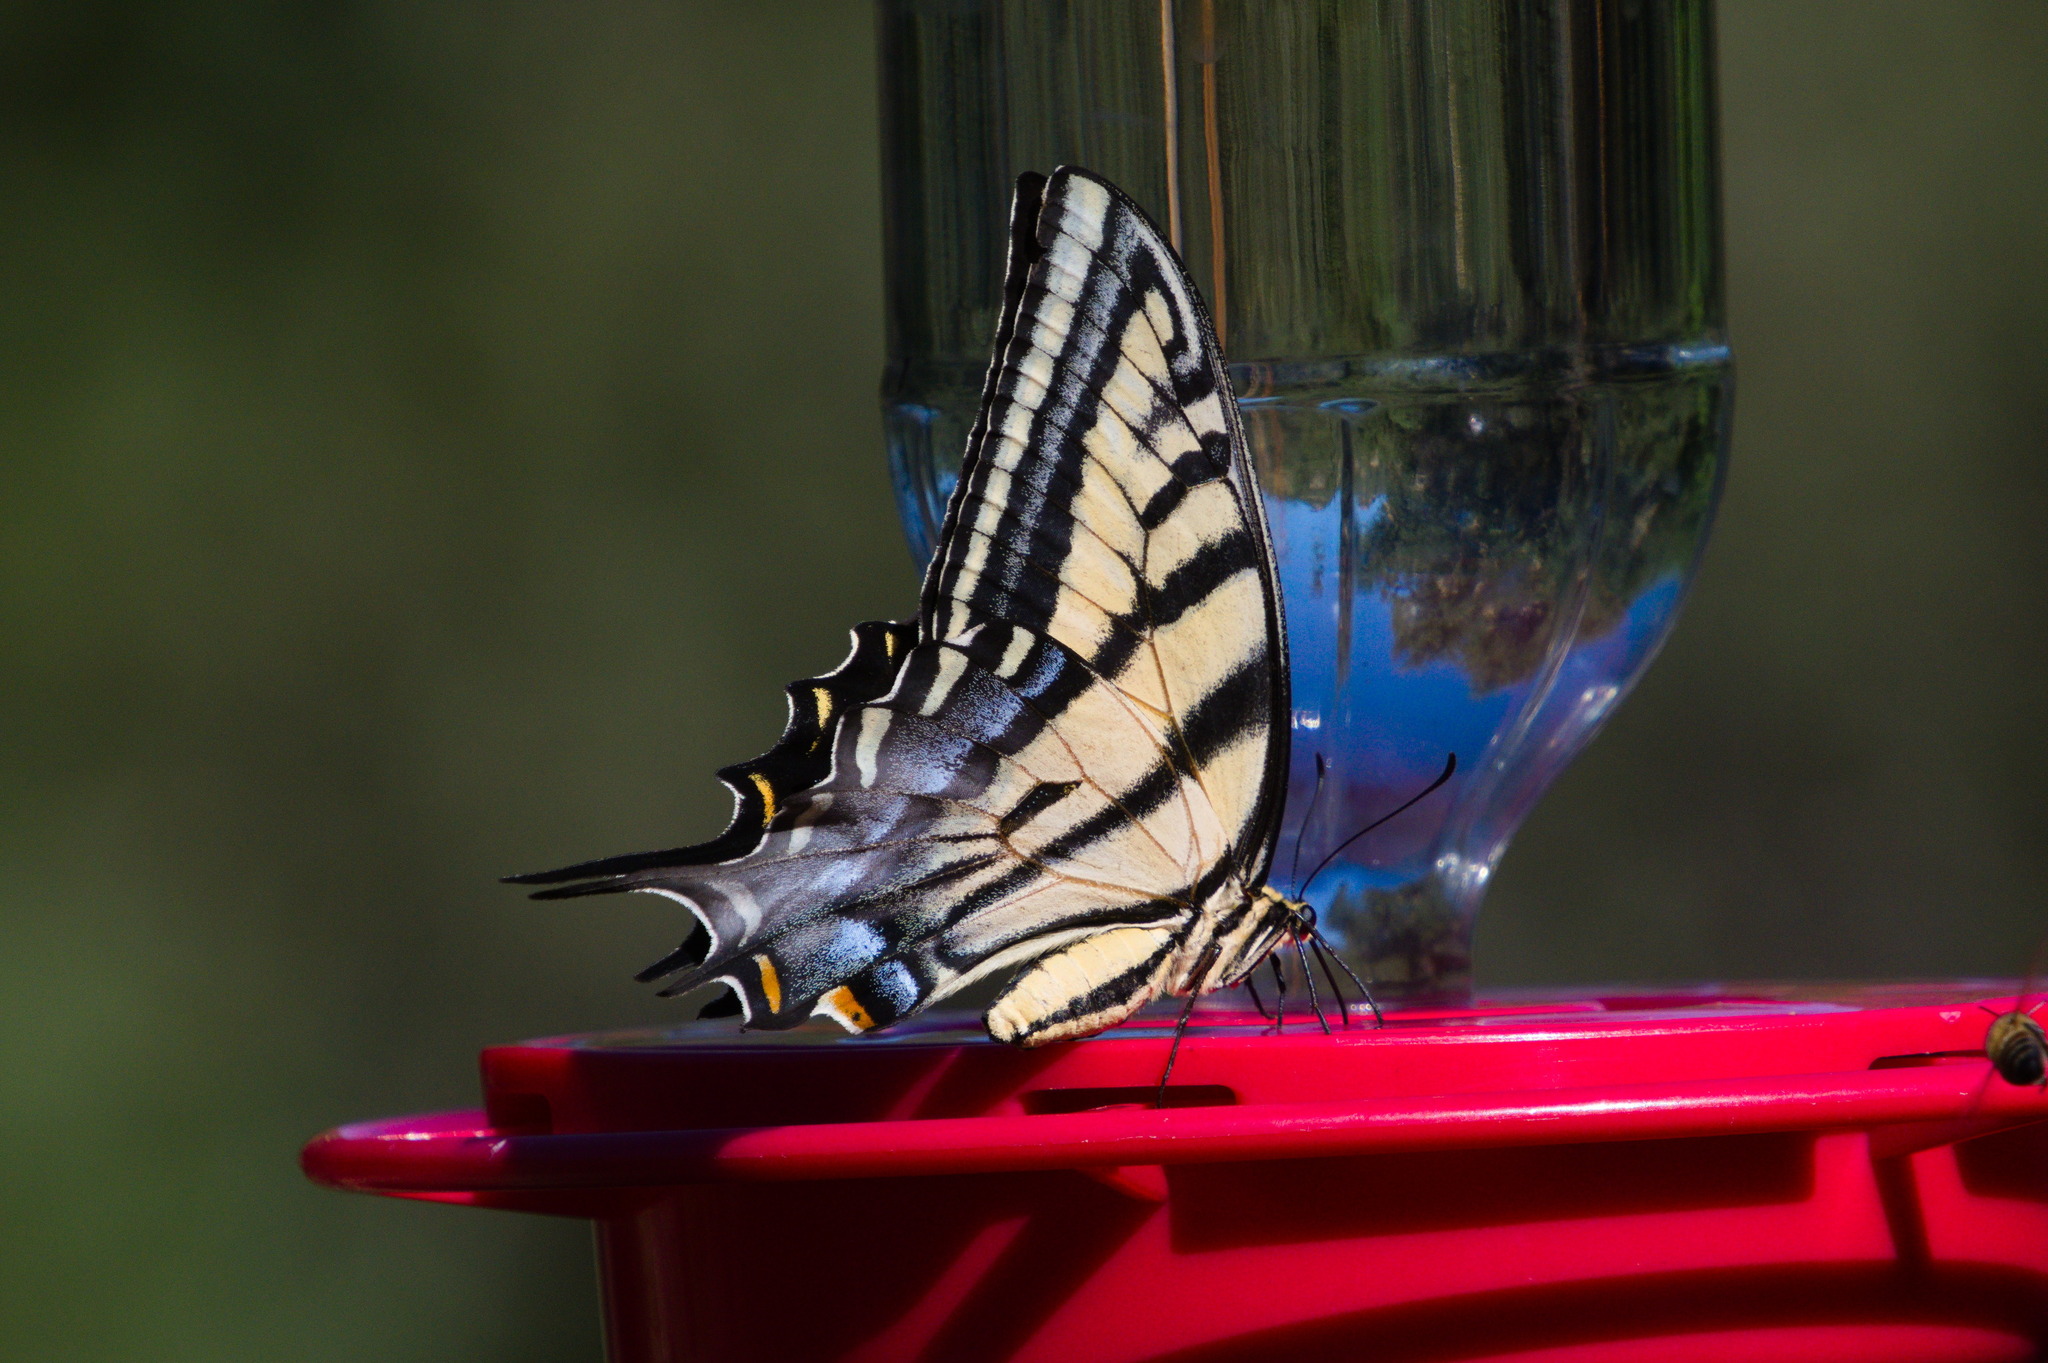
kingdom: Animalia
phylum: Arthropoda
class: Insecta
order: Lepidoptera
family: Papilionidae
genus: Papilio
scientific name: Papilio multicaudata
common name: Two-tailed tiger swallowtail
